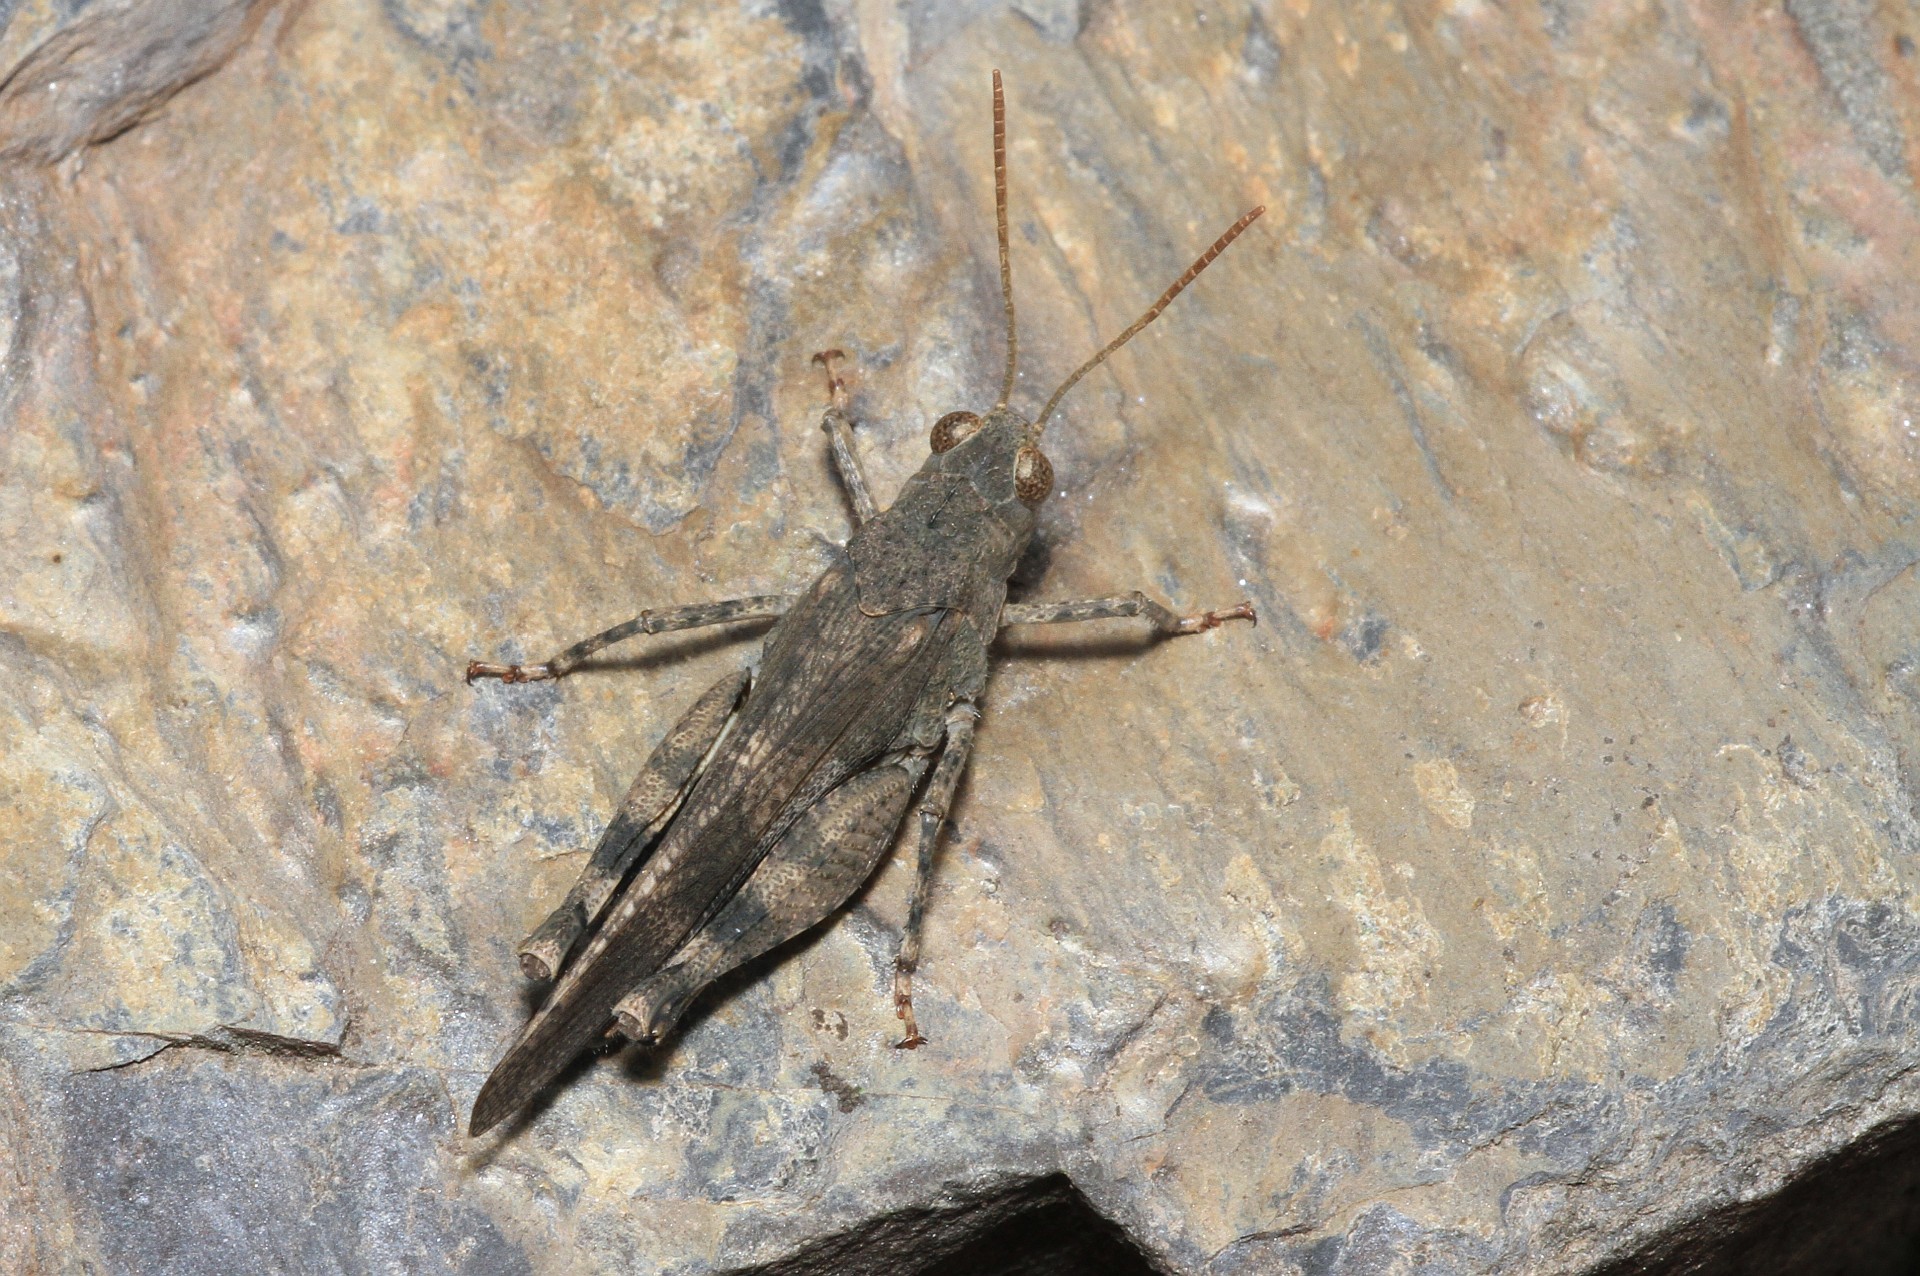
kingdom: Animalia
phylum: Arthropoda
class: Insecta
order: Orthoptera
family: Acrididae
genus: Oedipoda
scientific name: Oedipoda germanica
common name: Red band-winged grasshopper
